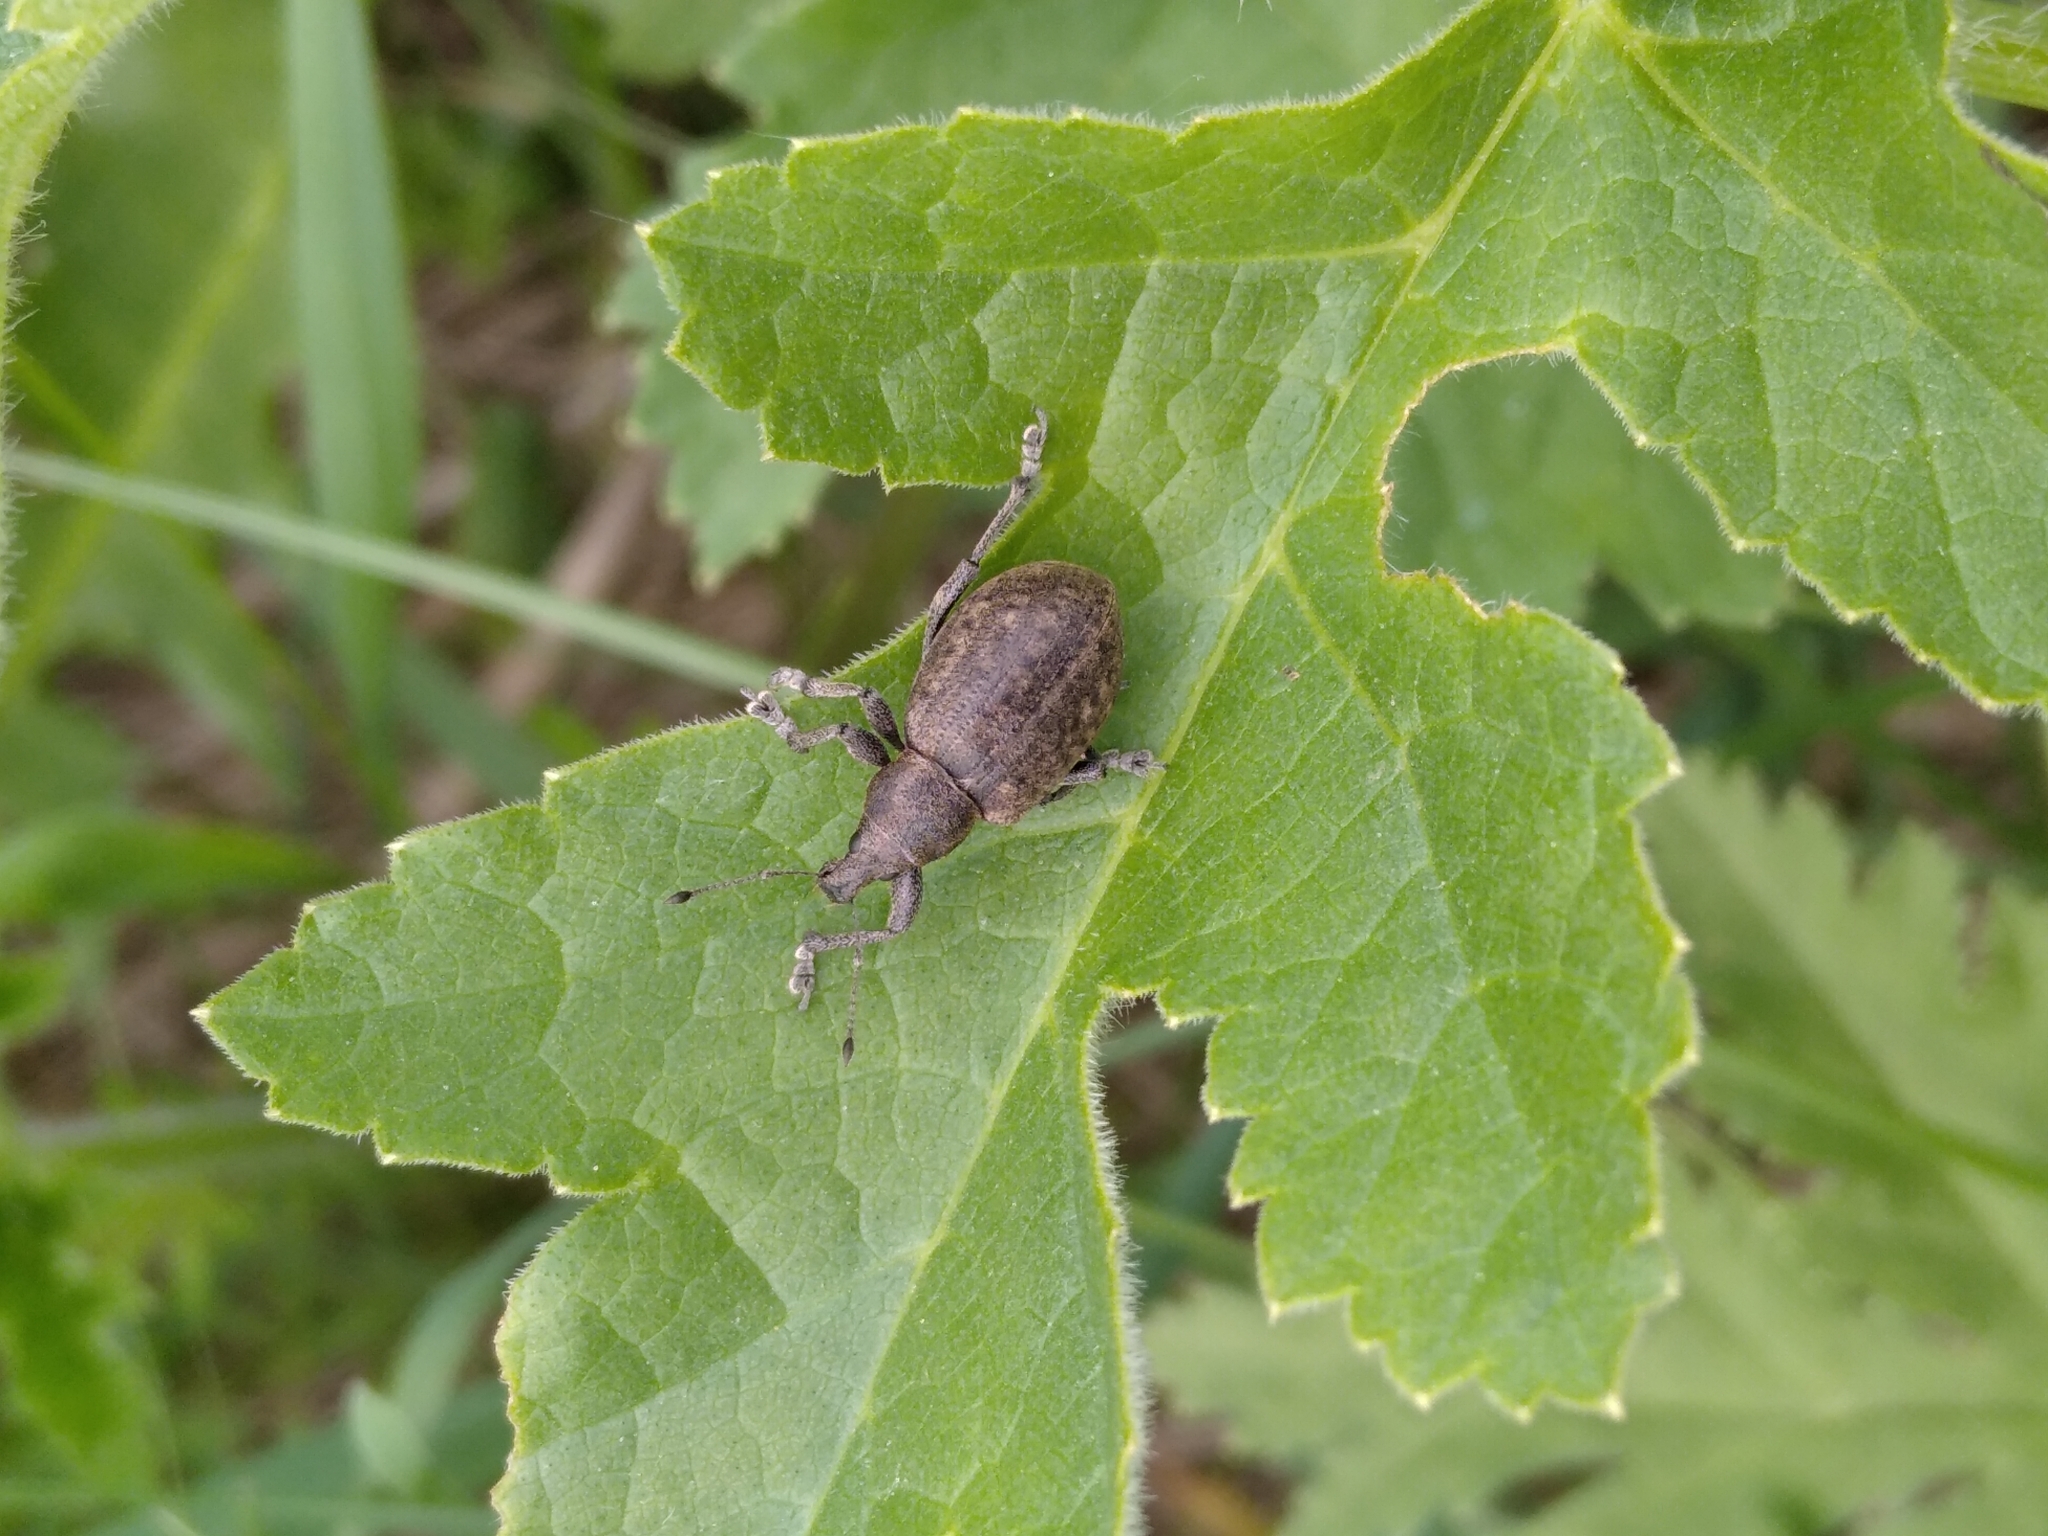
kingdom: Animalia
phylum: Arthropoda
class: Insecta
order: Coleoptera
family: Curculionidae
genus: Liophloeus
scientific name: Liophloeus tessulatus
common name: Weevil
